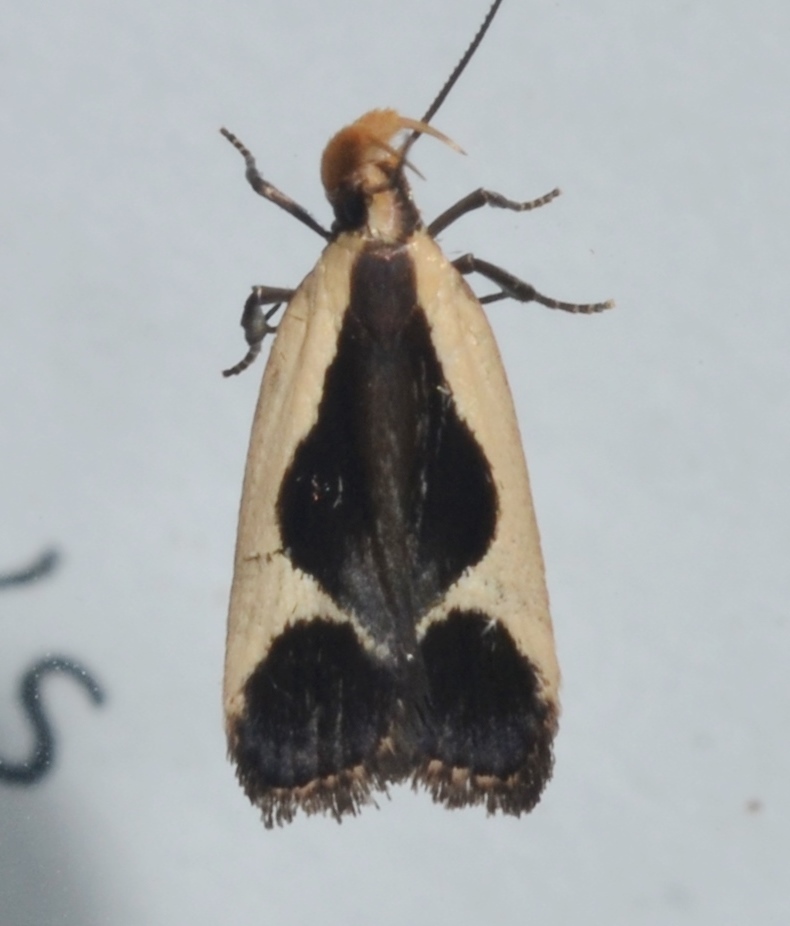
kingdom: Animalia
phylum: Arthropoda
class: Insecta
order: Lepidoptera
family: Gelechiidae
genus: Dichomeris
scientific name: Dichomeris flavocostella
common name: Cream-edged dichomeris moth
